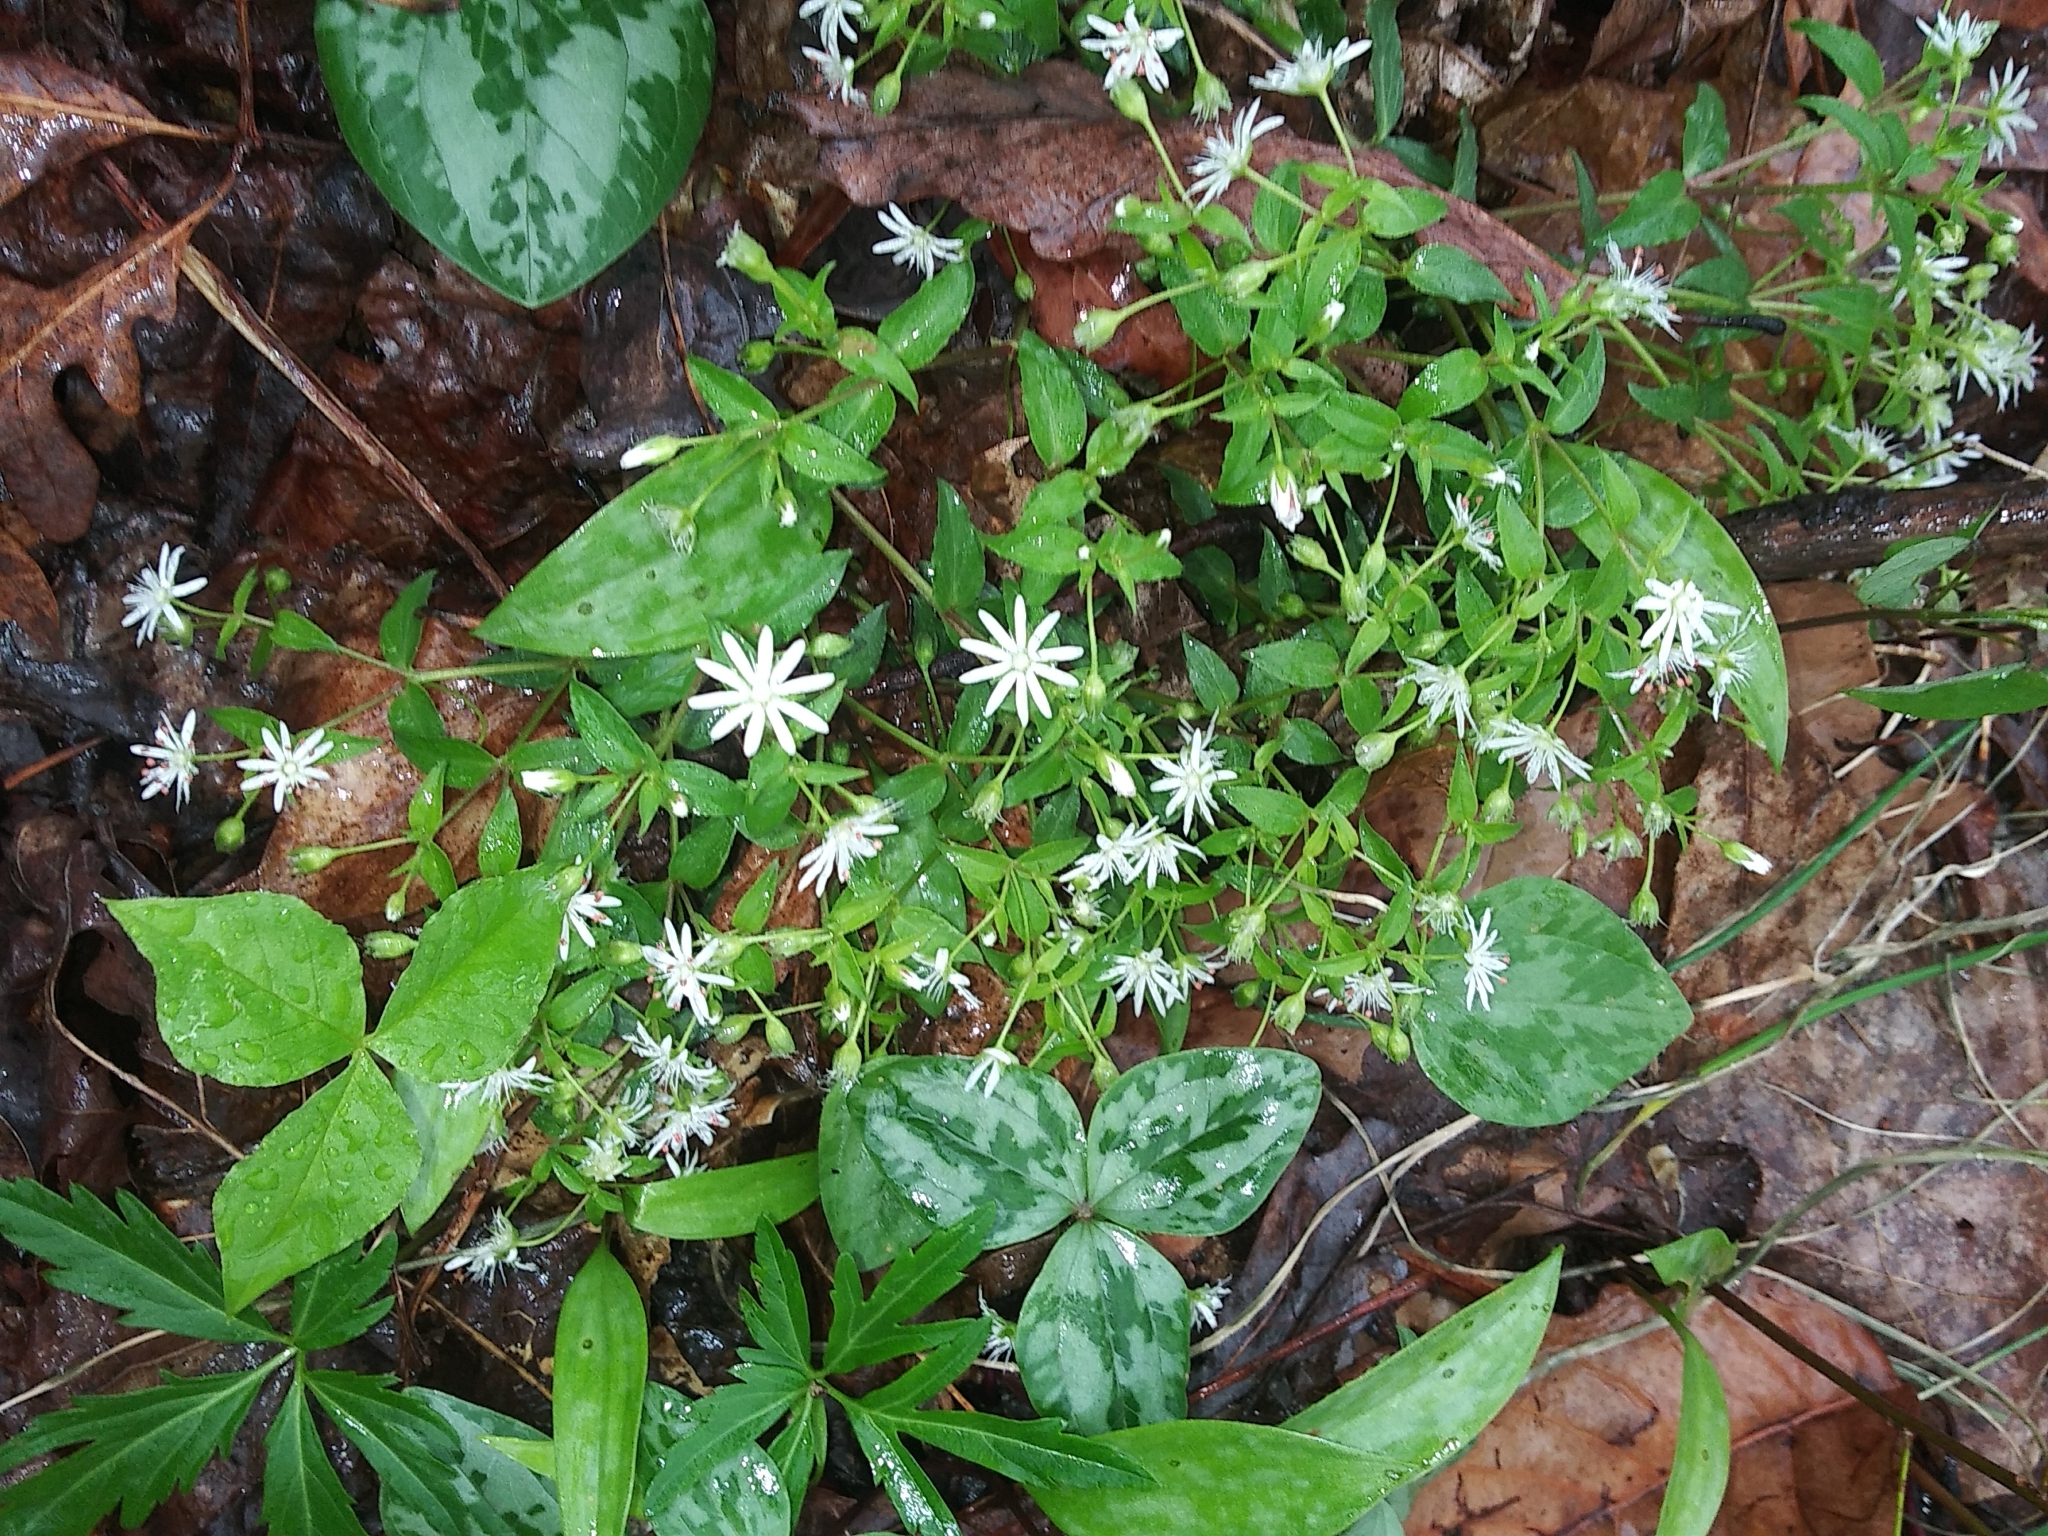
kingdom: Plantae
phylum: Tracheophyta
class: Magnoliopsida
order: Caryophyllales
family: Caryophyllaceae
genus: Stellaria
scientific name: Stellaria pubera
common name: Star chickweed
